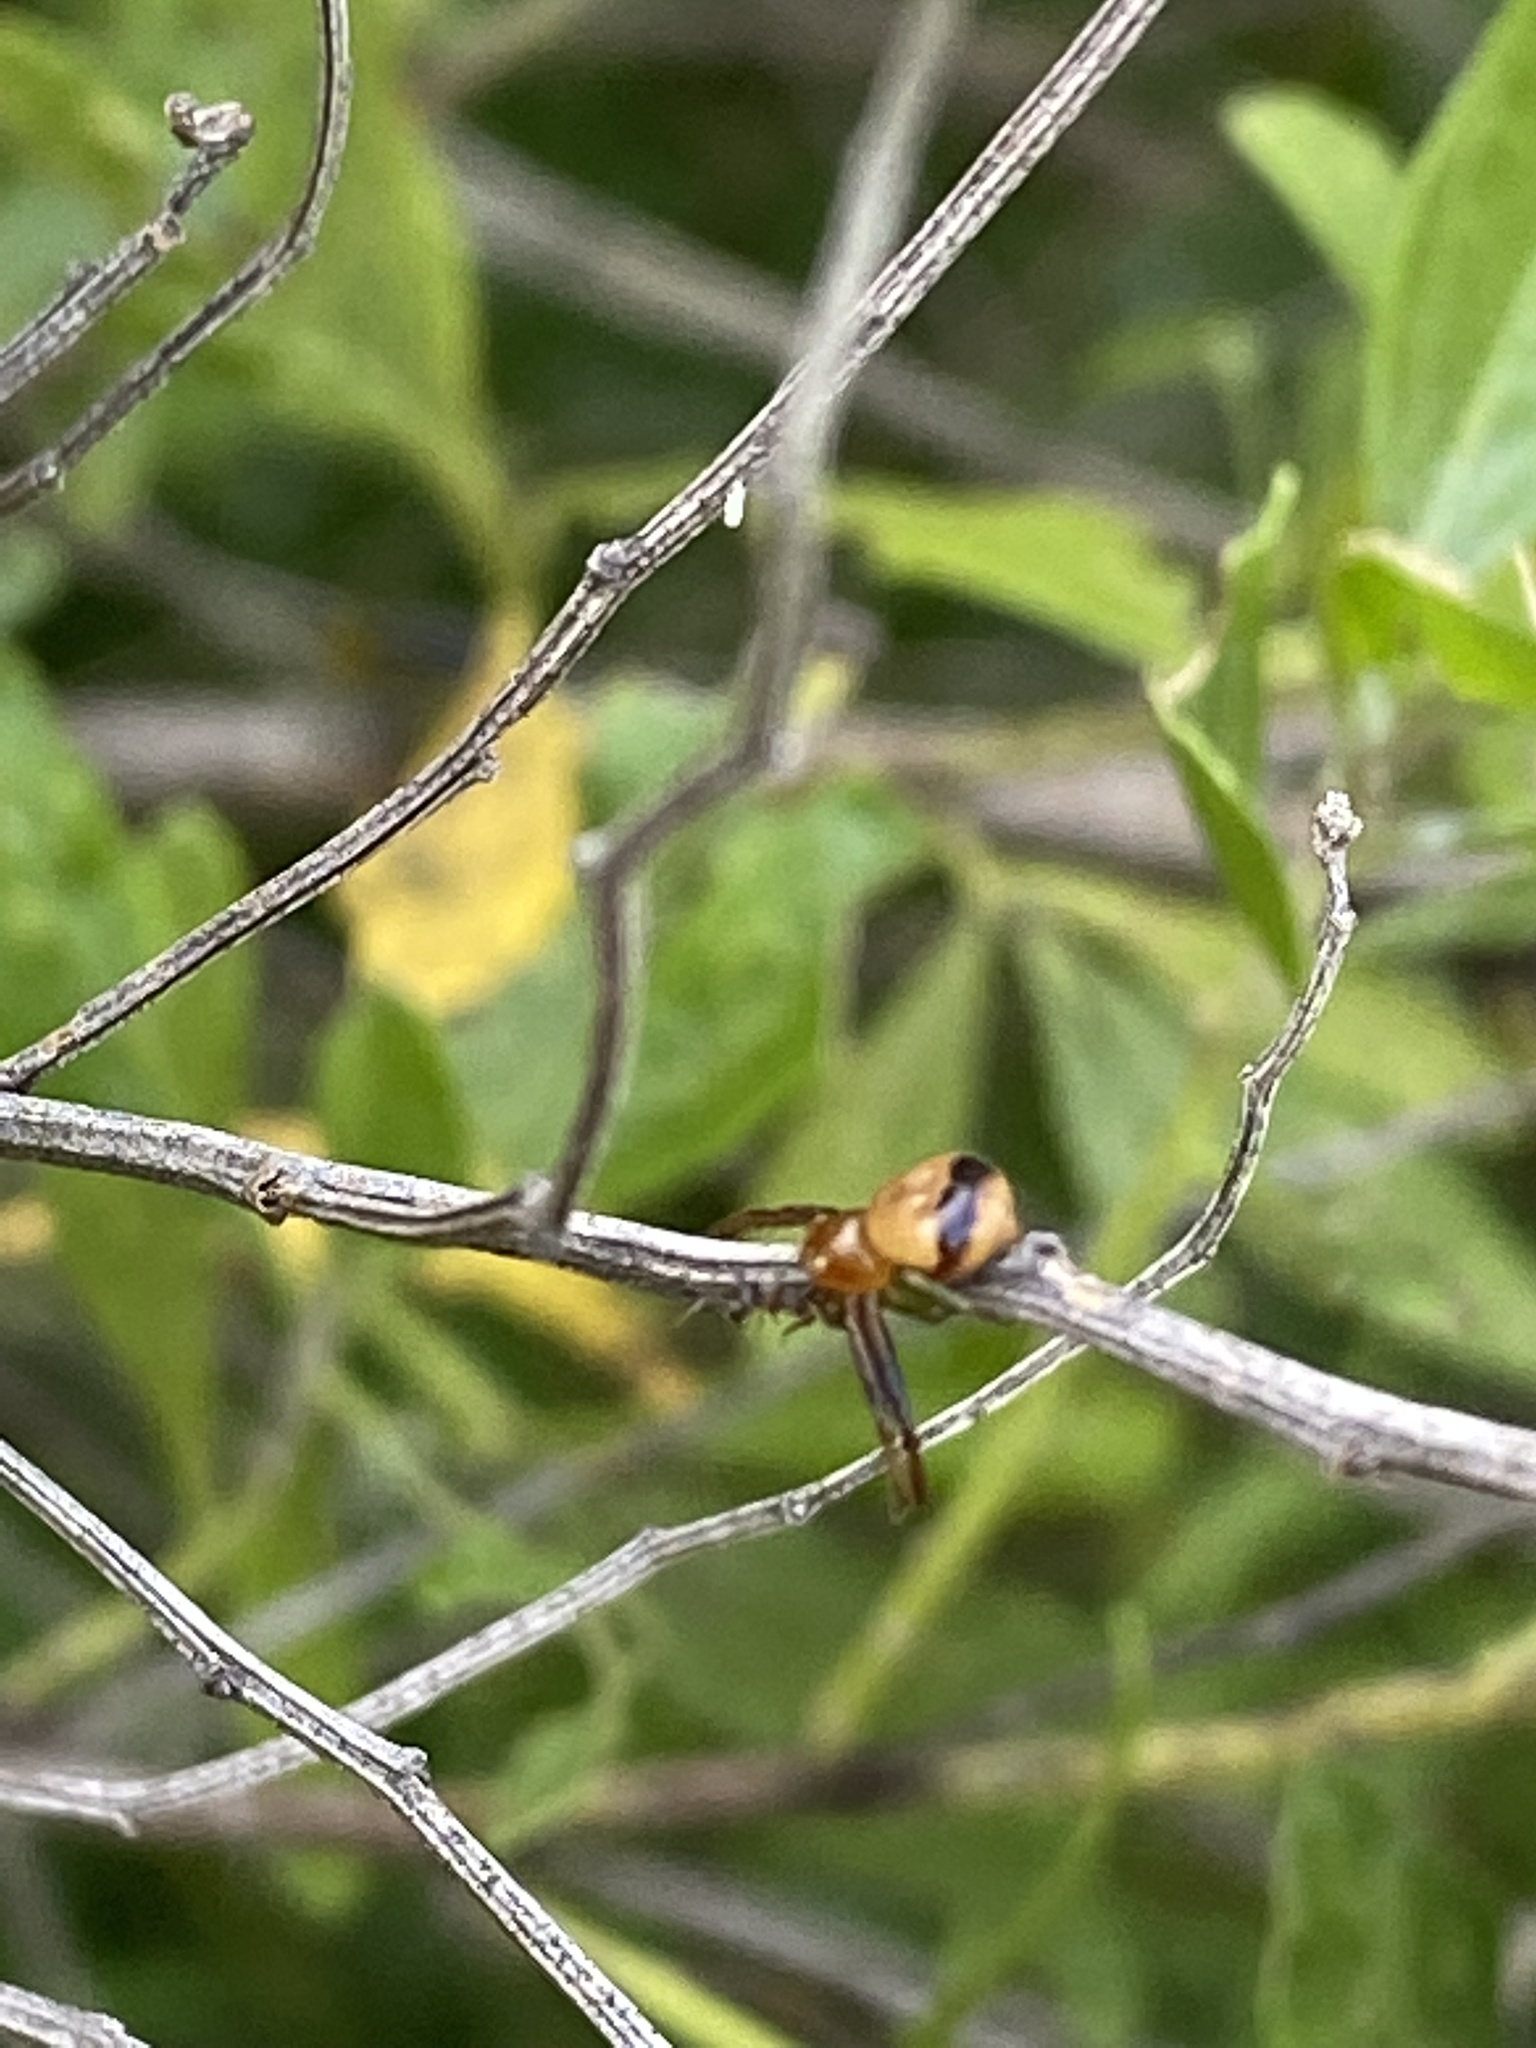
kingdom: Animalia
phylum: Arthropoda
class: Arachnida
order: Araneae
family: Thomisidae
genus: Synema
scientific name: Synema parvulum
